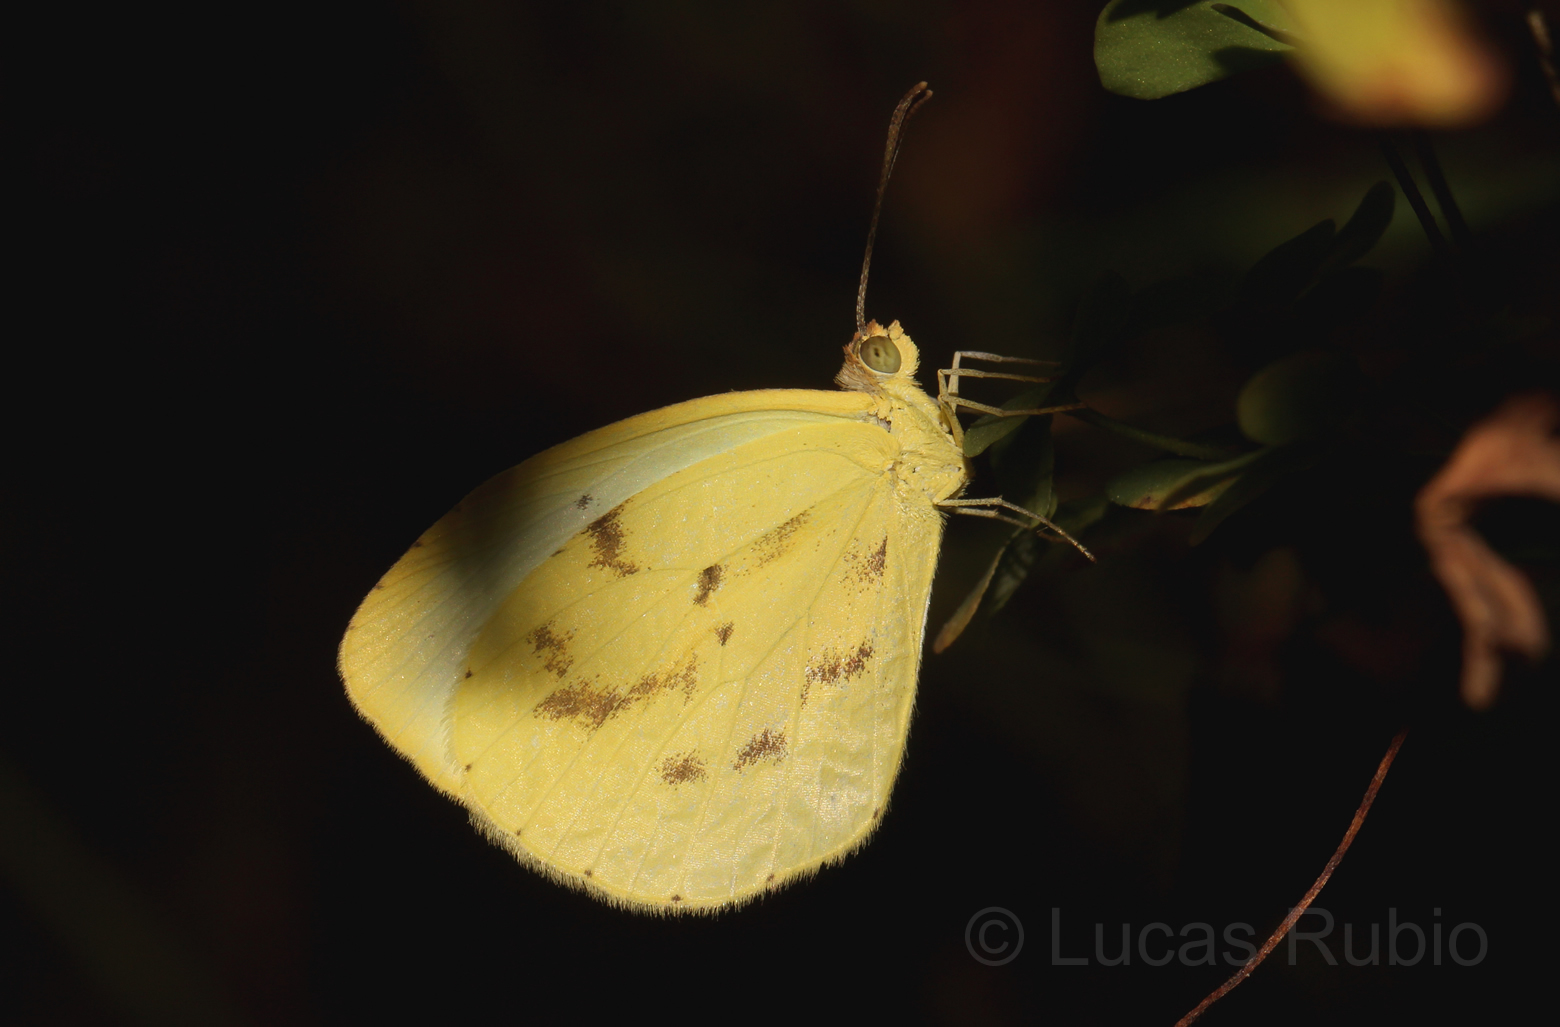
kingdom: Animalia
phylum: Arthropoda
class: Insecta
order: Lepidoptera
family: Pieridae
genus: Abaeis
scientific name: Abaeis albula
